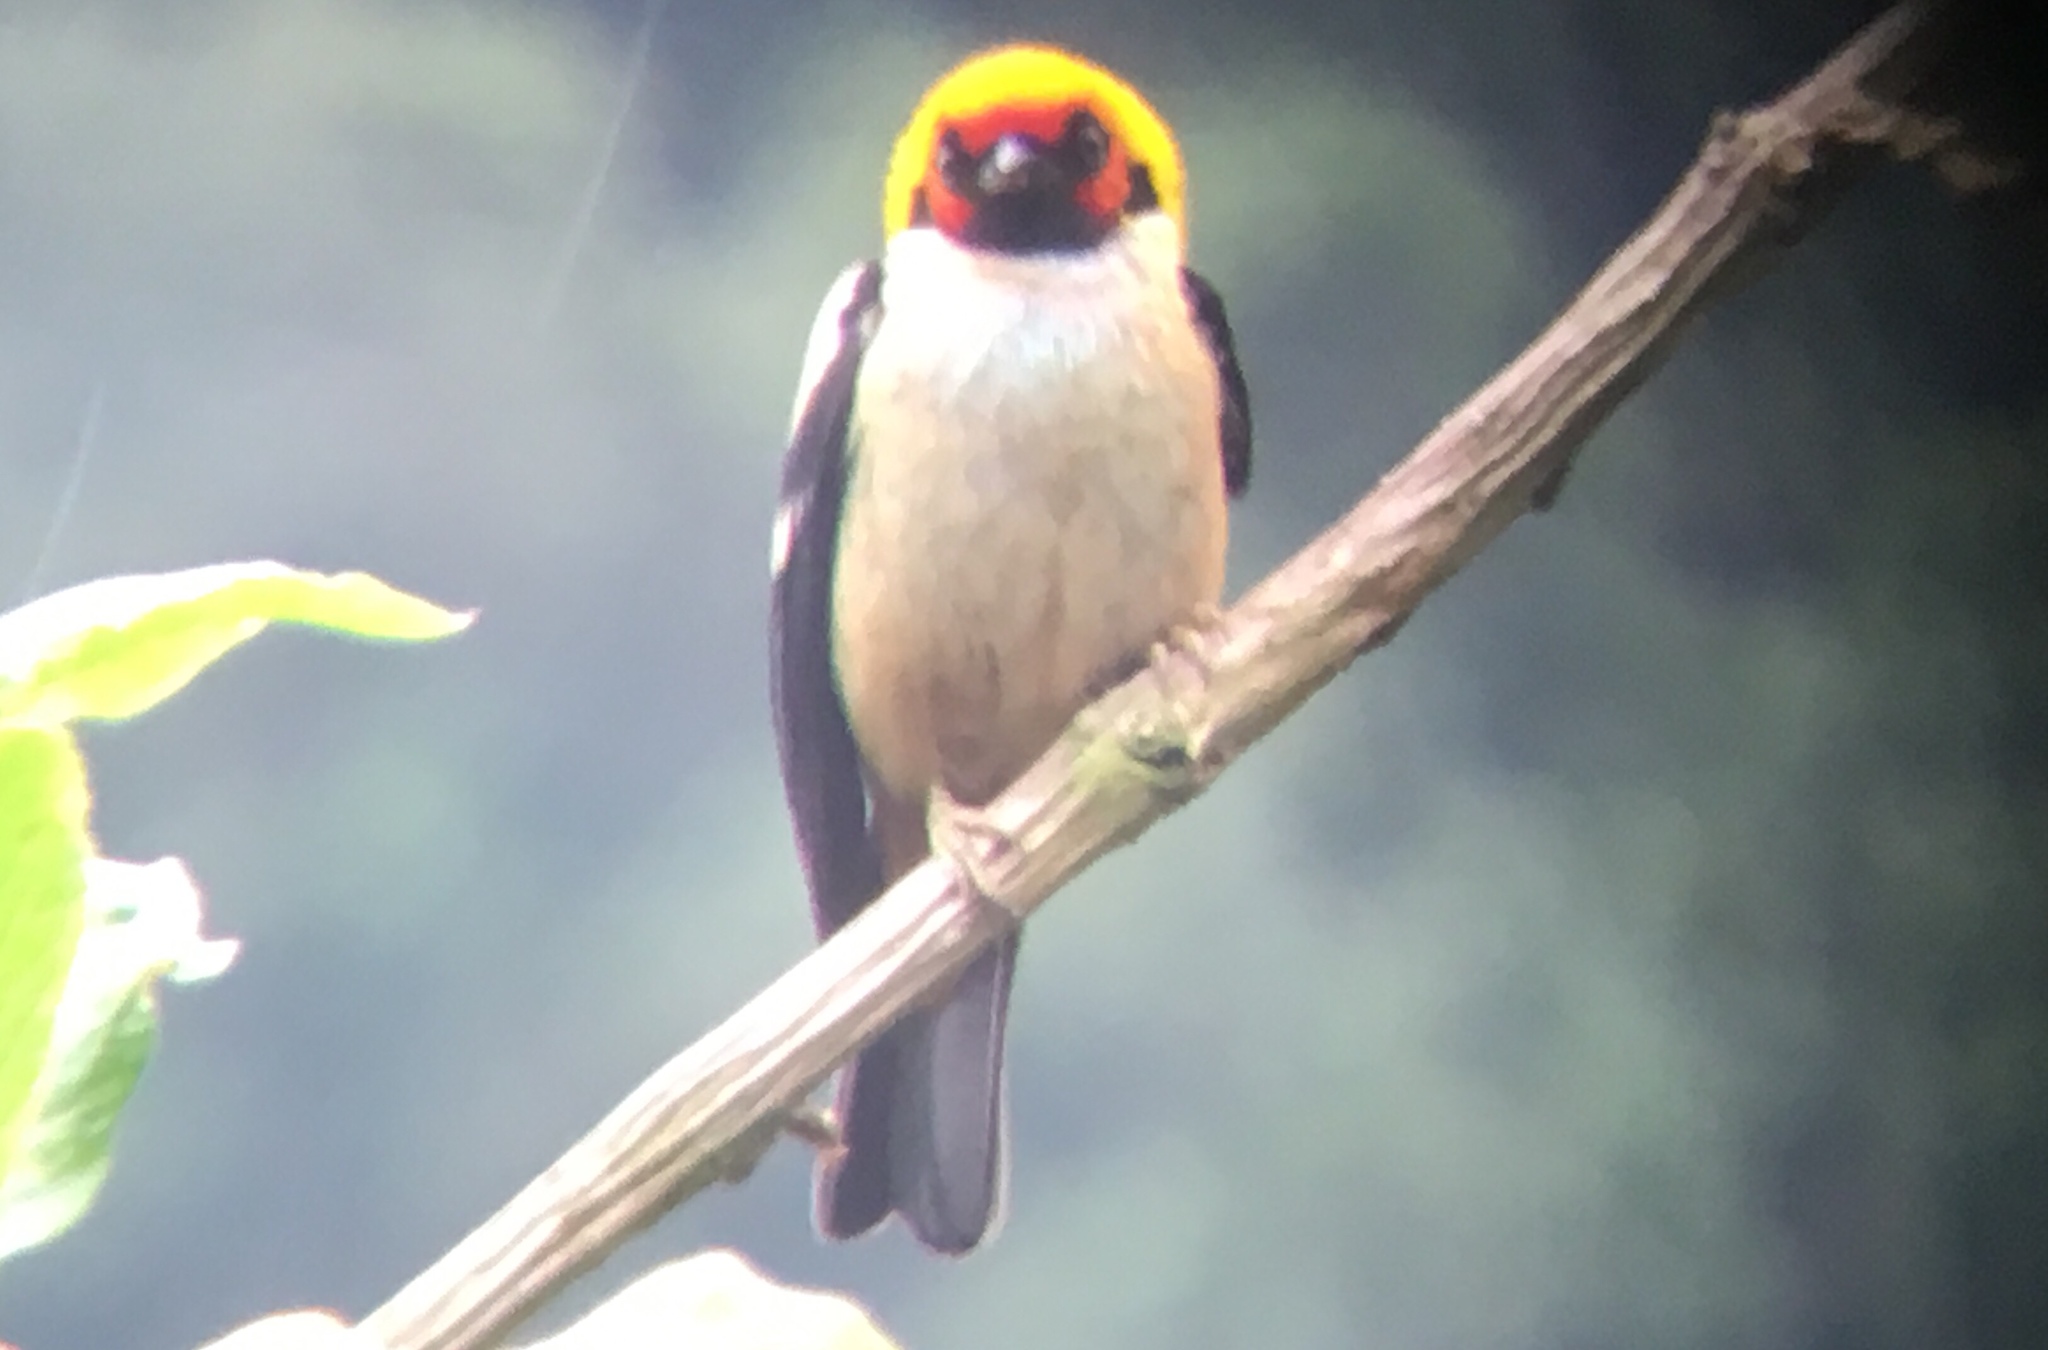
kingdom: Animalia
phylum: Chordata
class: Aves
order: Passeriformes
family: Thraupidae
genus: Tangara
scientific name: Tangara parzudakii
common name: Flame-faced tanager
